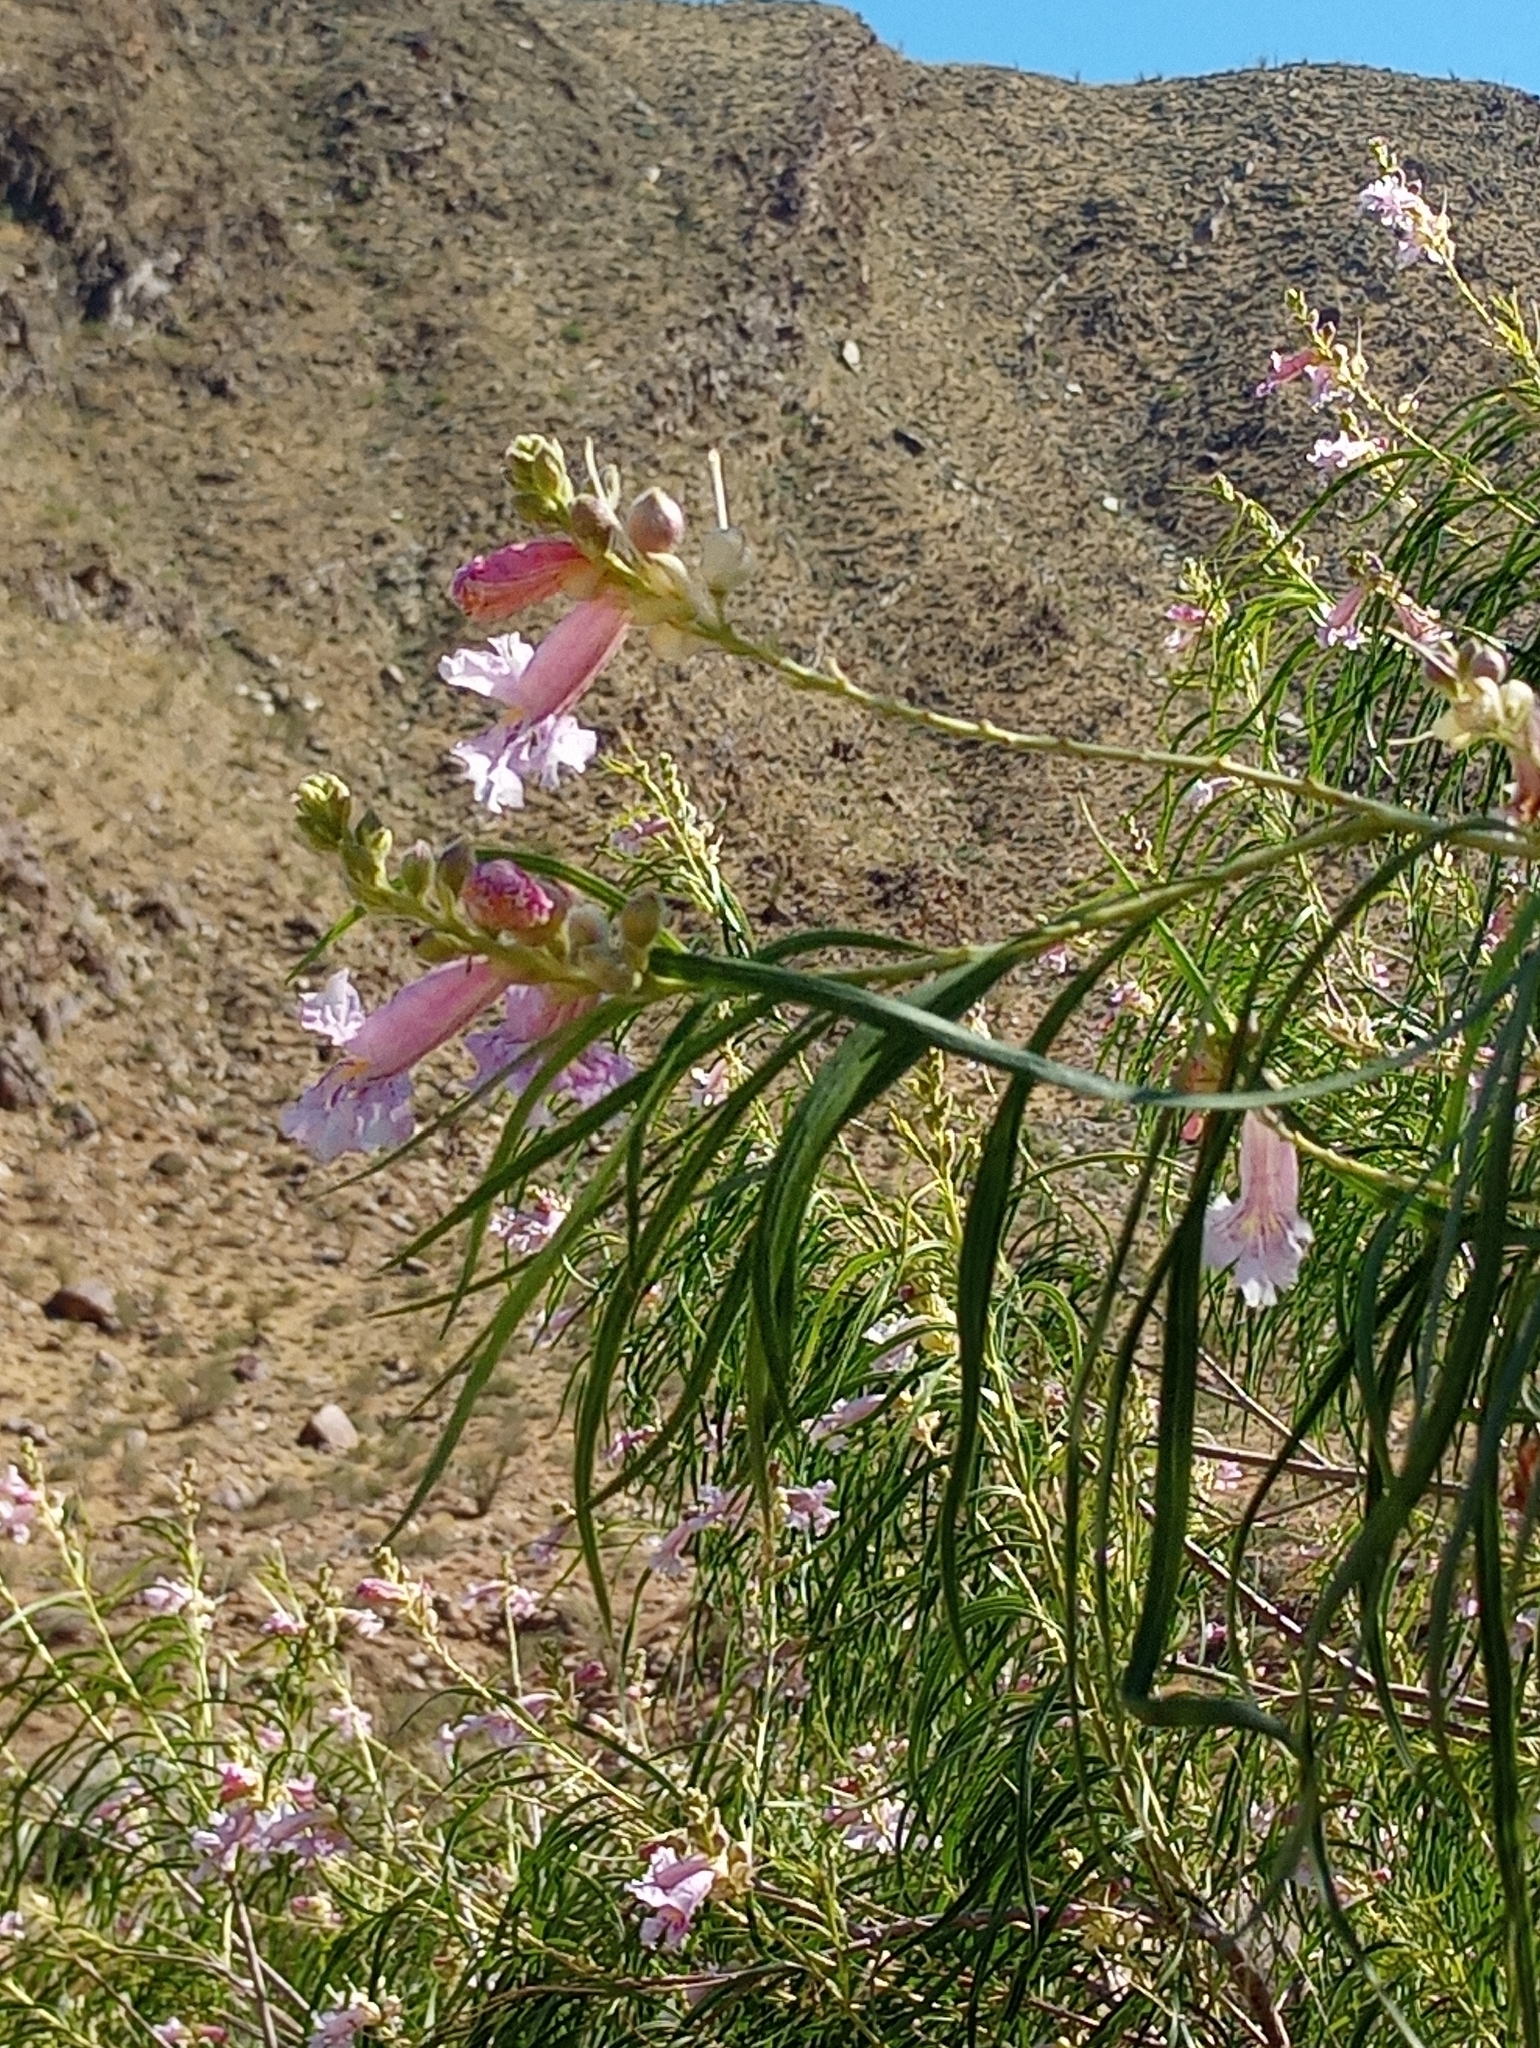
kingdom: Plantae
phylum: Tracheophyta
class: Magnoliopsida
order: Lamiales
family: Bignoniaceae
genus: Chilopsis
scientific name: Chilopsis linearis
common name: Desert-willow
